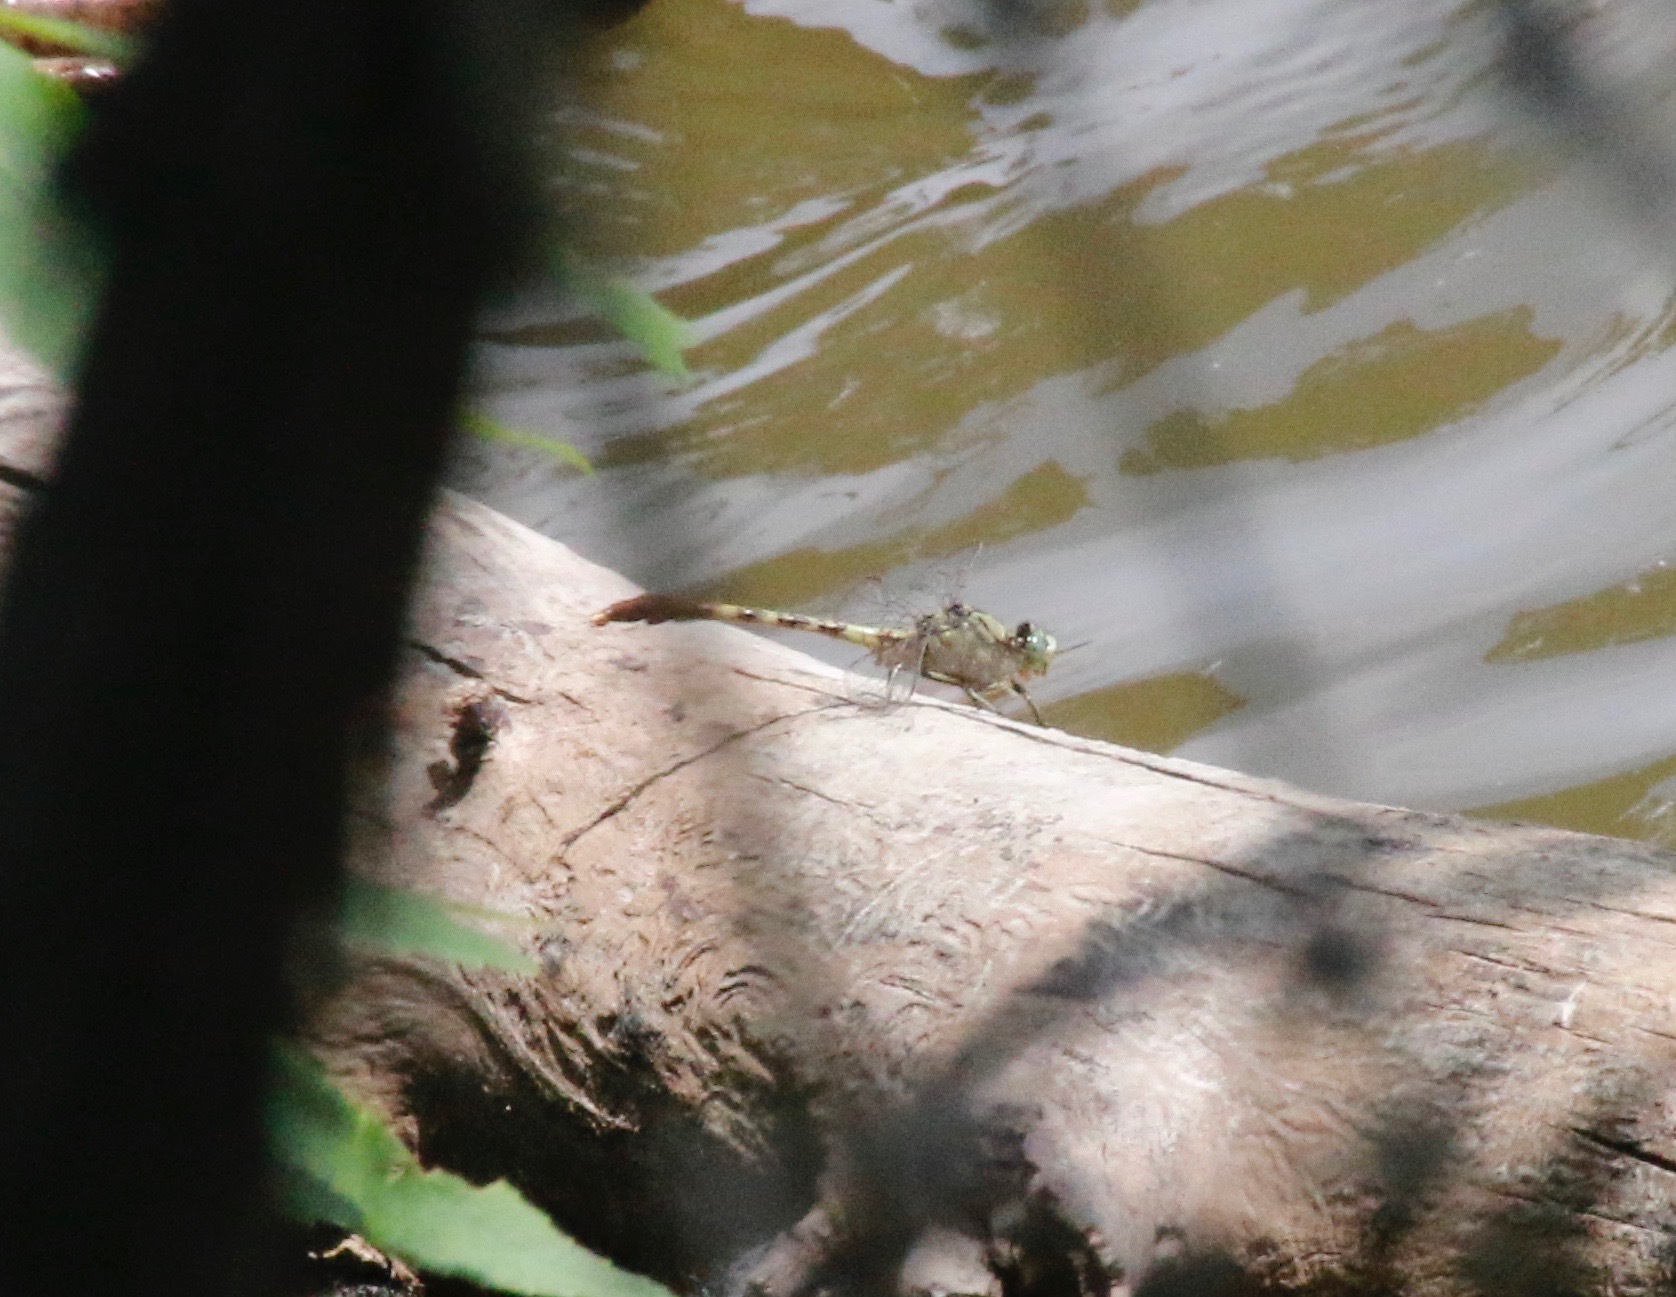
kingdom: Animalia
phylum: Arthropoda
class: Insecta
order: Odonata
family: Gomphidae
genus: Arigomphus
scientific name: Arigomphus submedianus
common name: Jade clubtail
